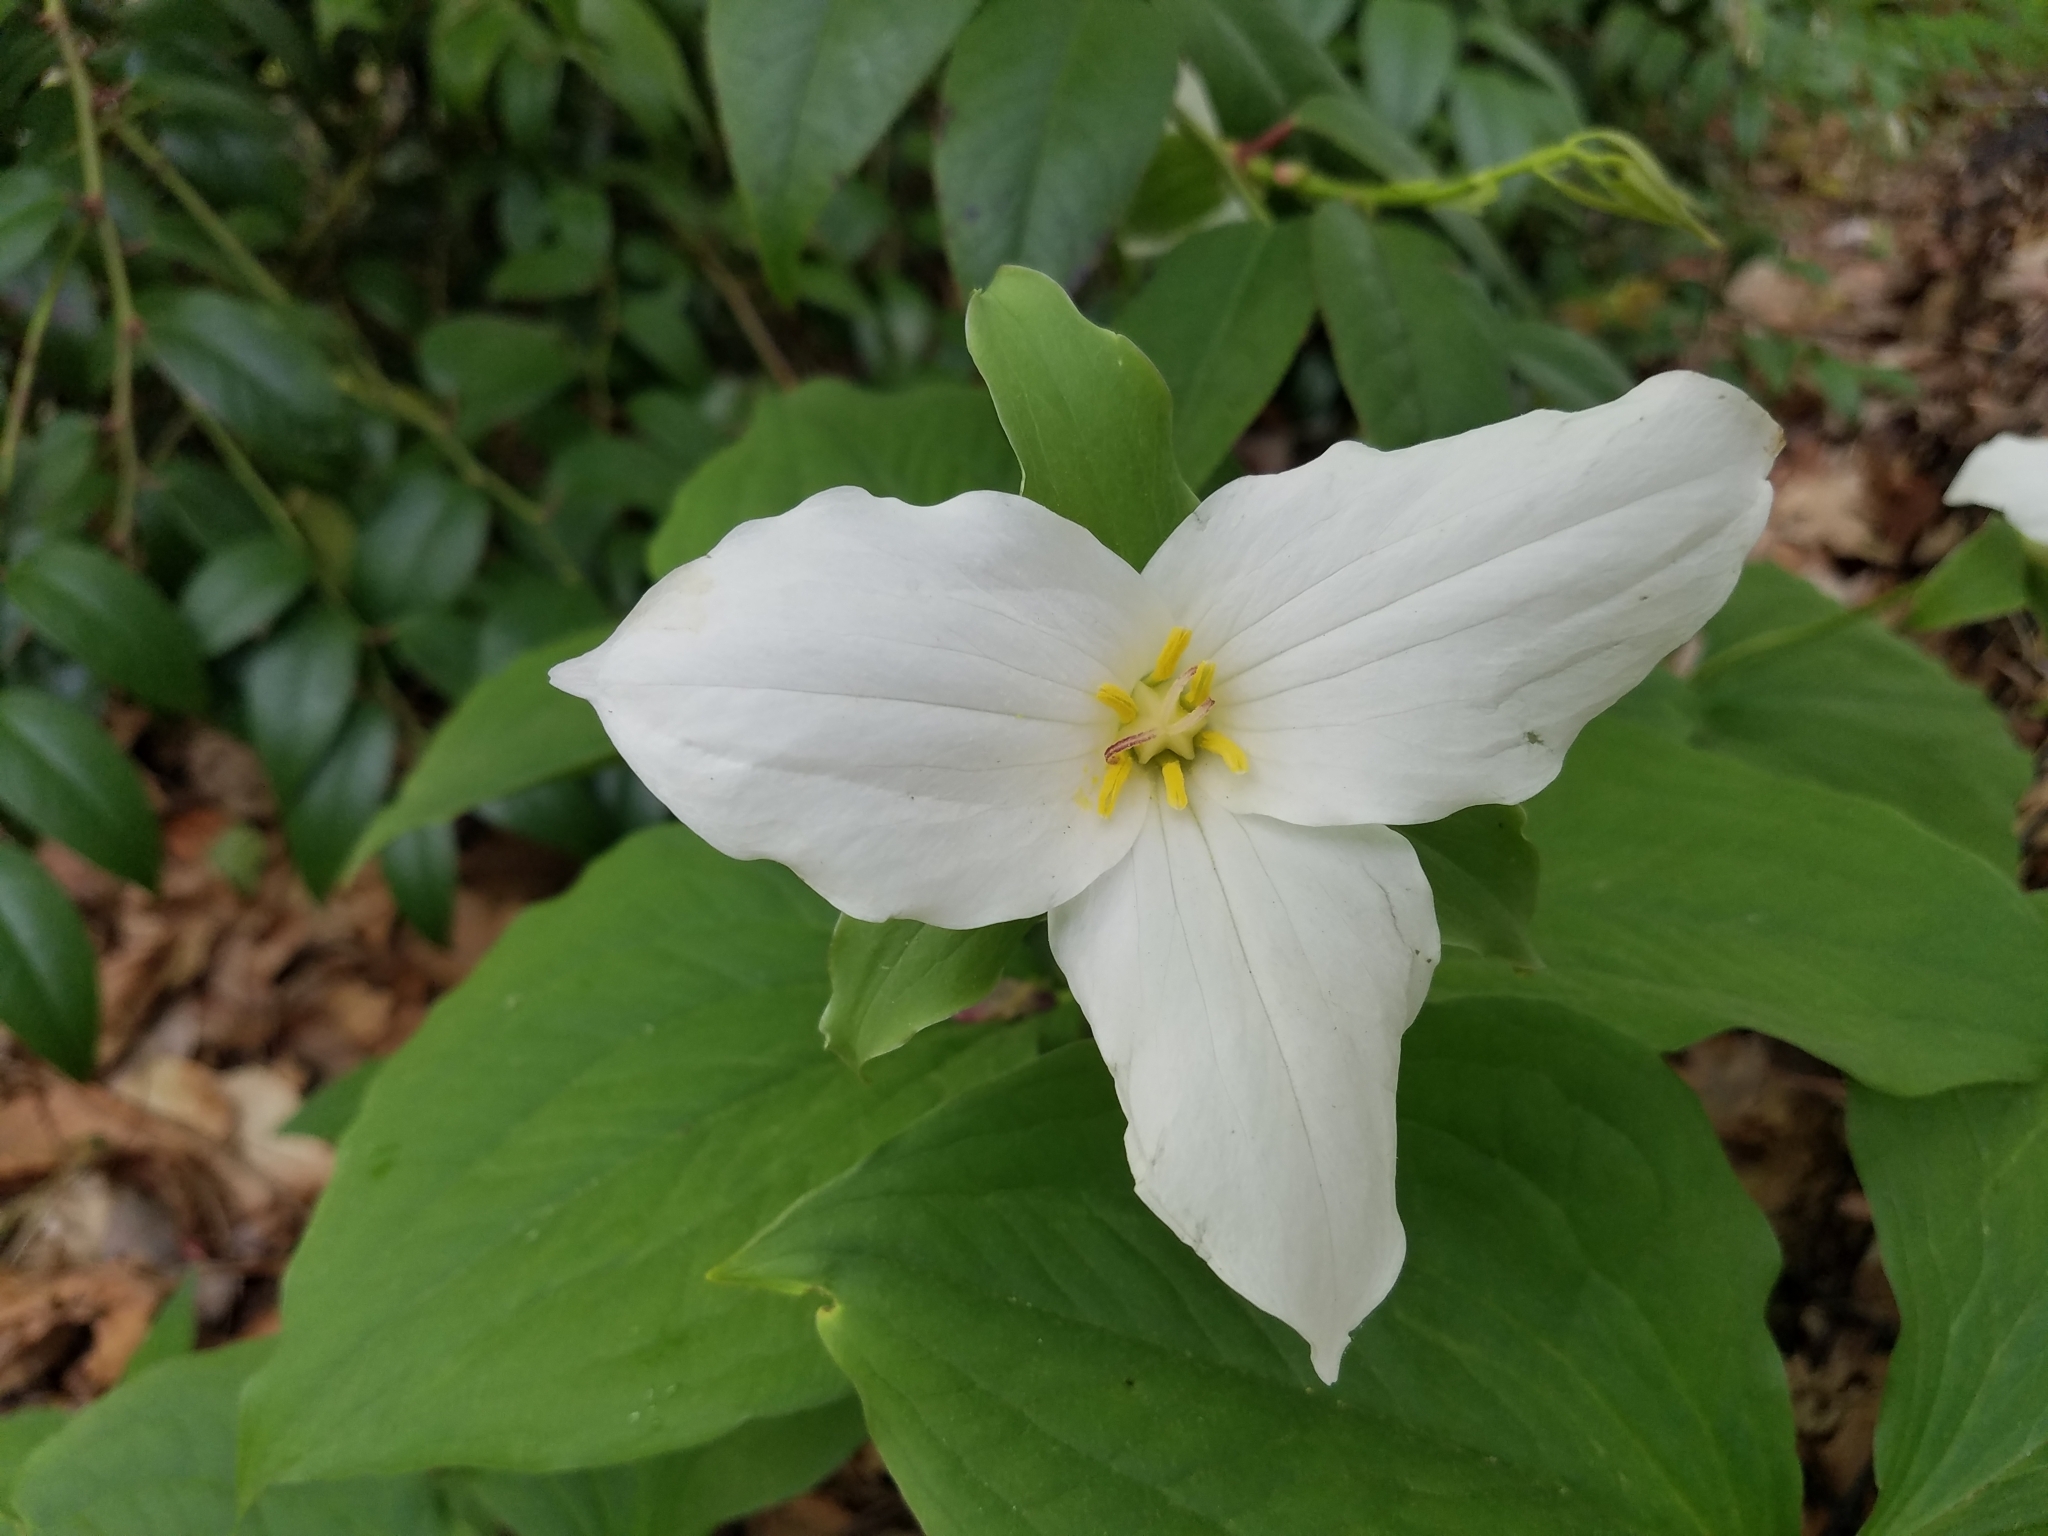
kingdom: Plantae
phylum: Tracheophyta
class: Liliopsida
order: Liliales
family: Melanthiaceae
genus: Trillium
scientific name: Trillium grandiflorum
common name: Great white trillium
